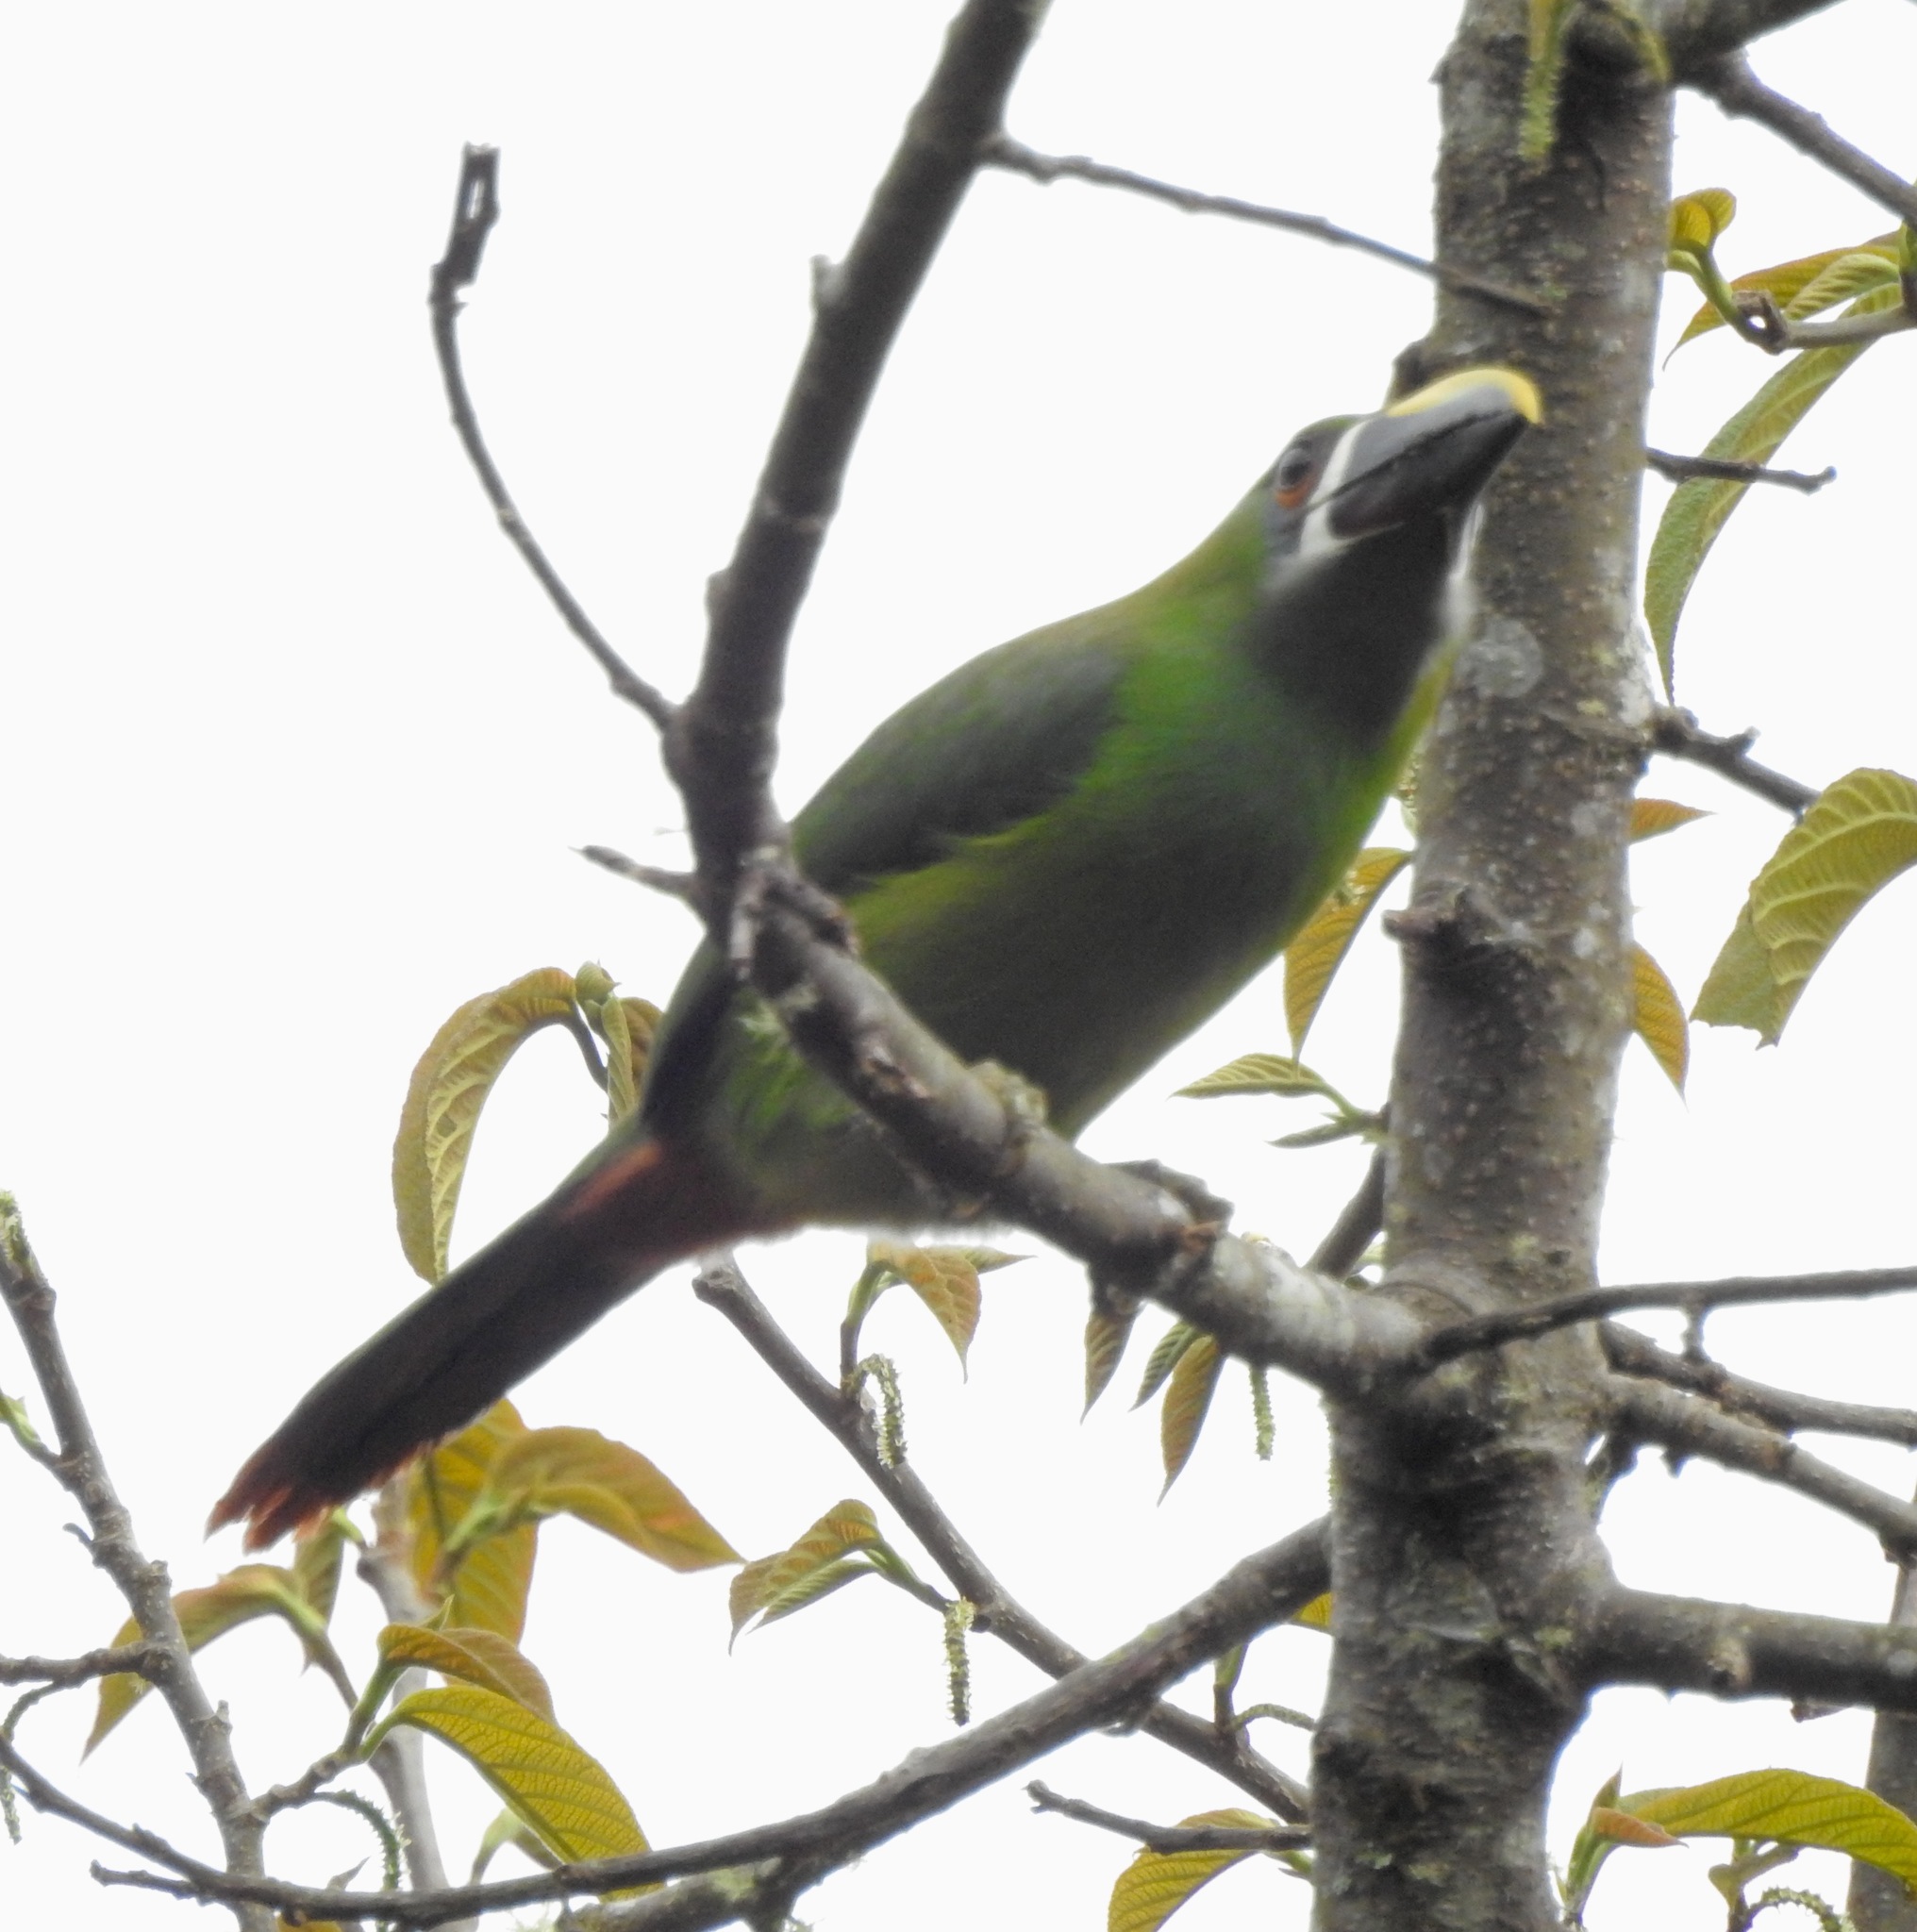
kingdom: Animalia
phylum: Chordata
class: Aves
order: Piciformes
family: Ramphastidae
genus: Aulacorhynchus
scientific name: Aulacorhynchus albivitta
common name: White-throated toucanet
